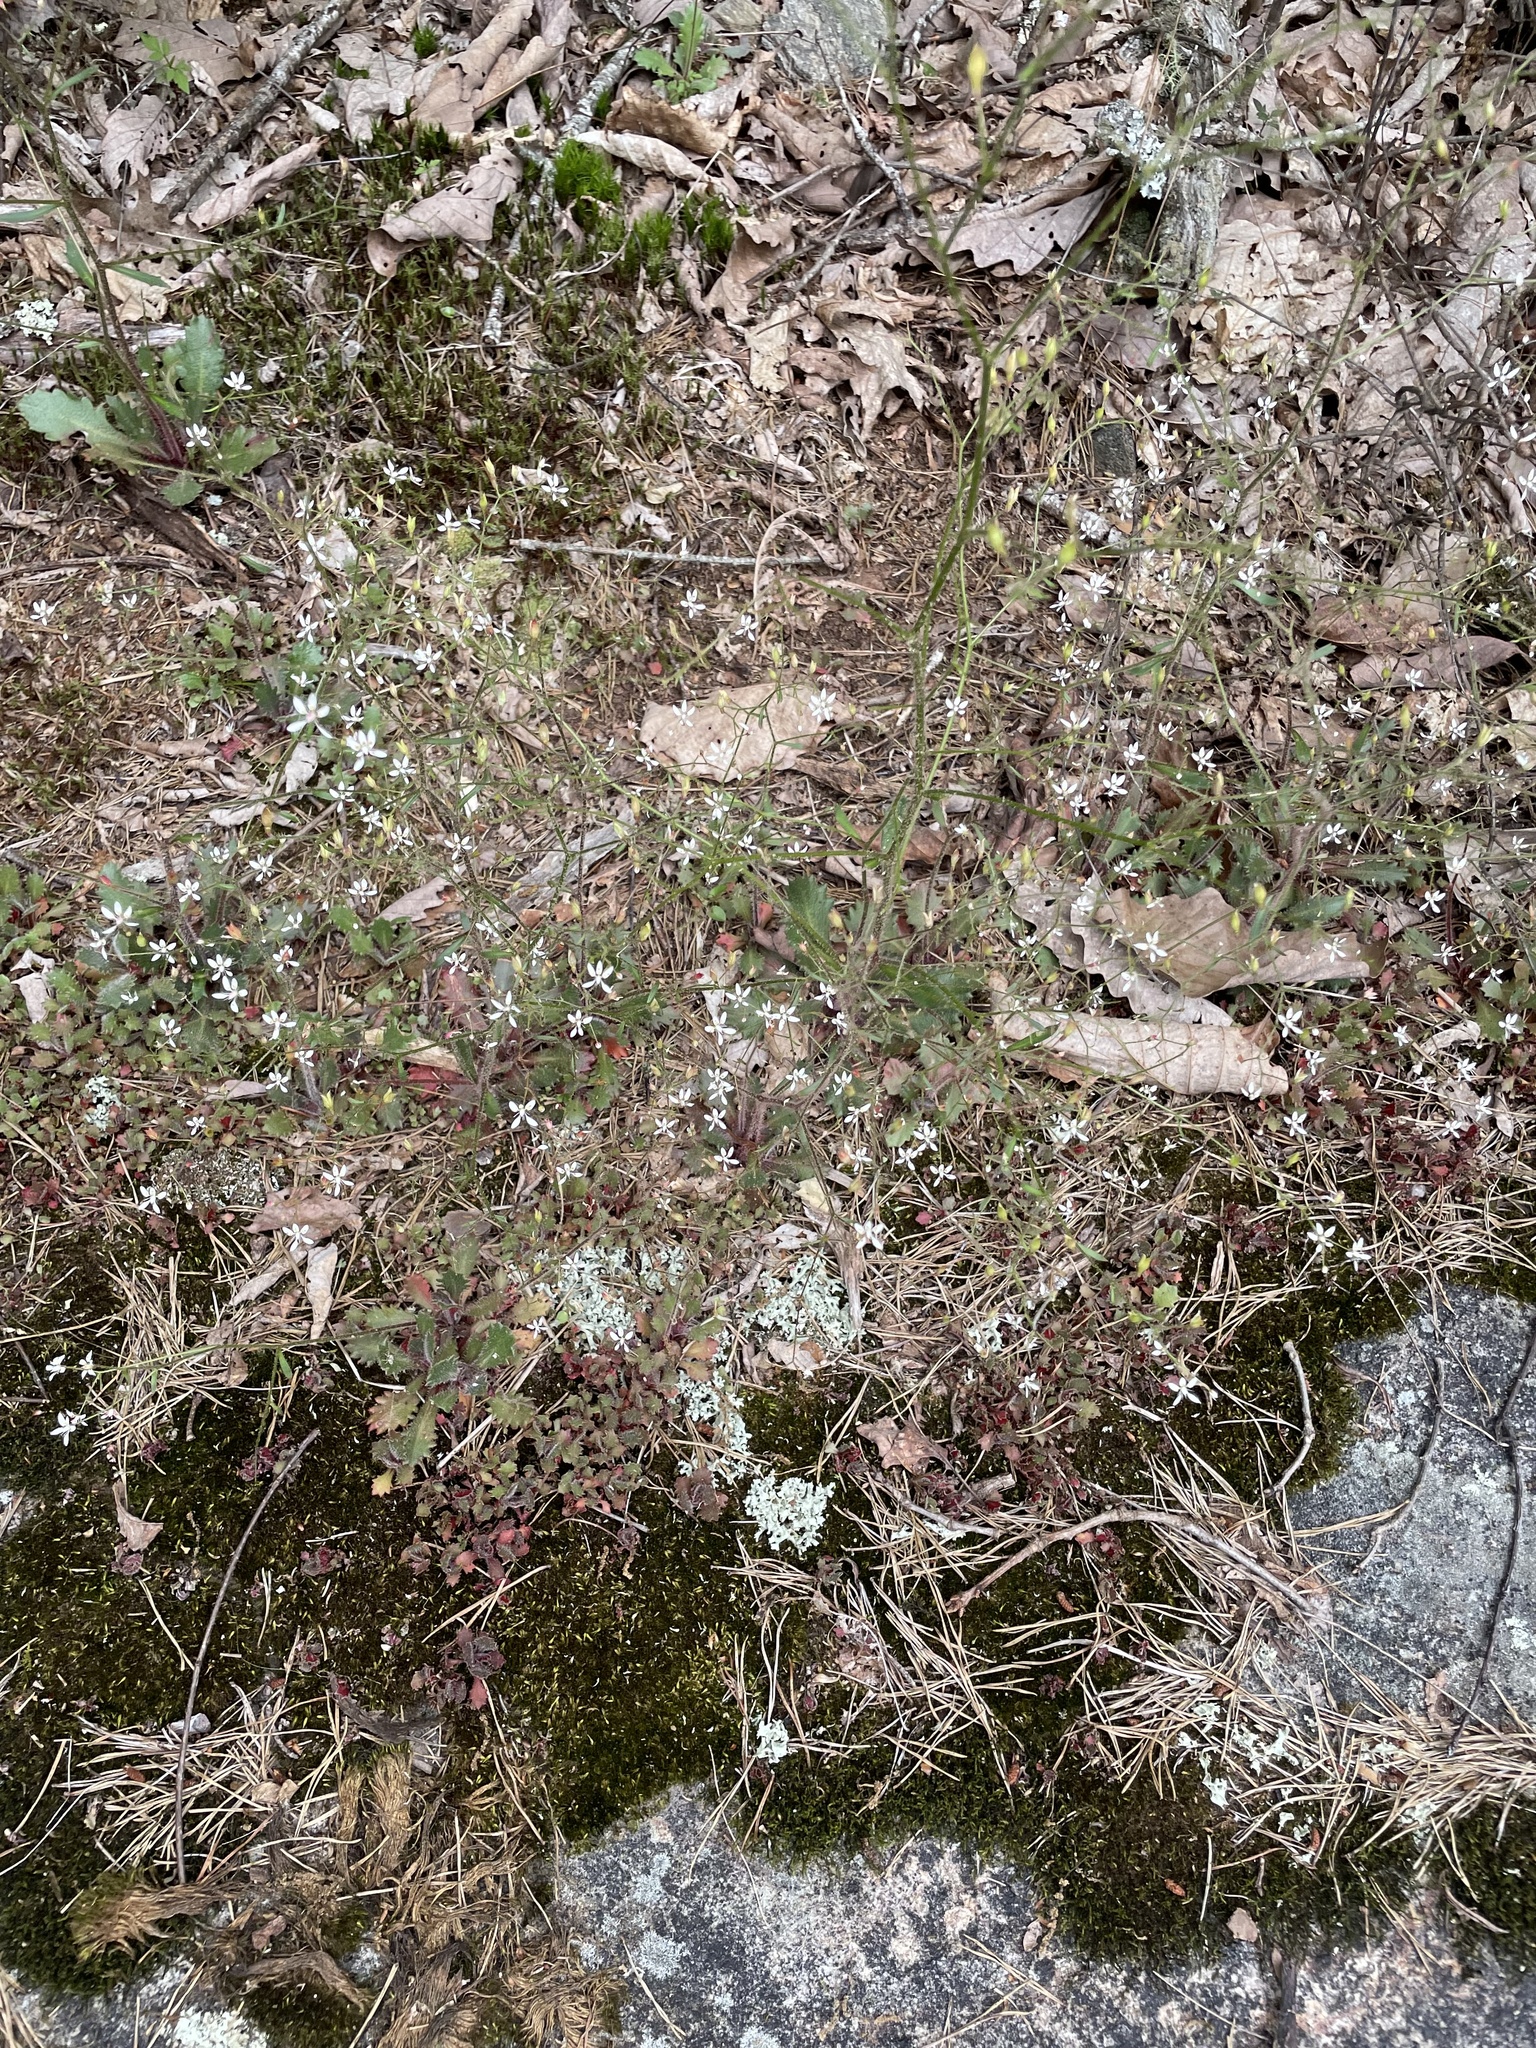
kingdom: Plantae
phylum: Tracheophyta
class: Magnoliopsida
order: Saxifragales
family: Saxifragaceae
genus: Micranthes
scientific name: Micranthes petiolaris
